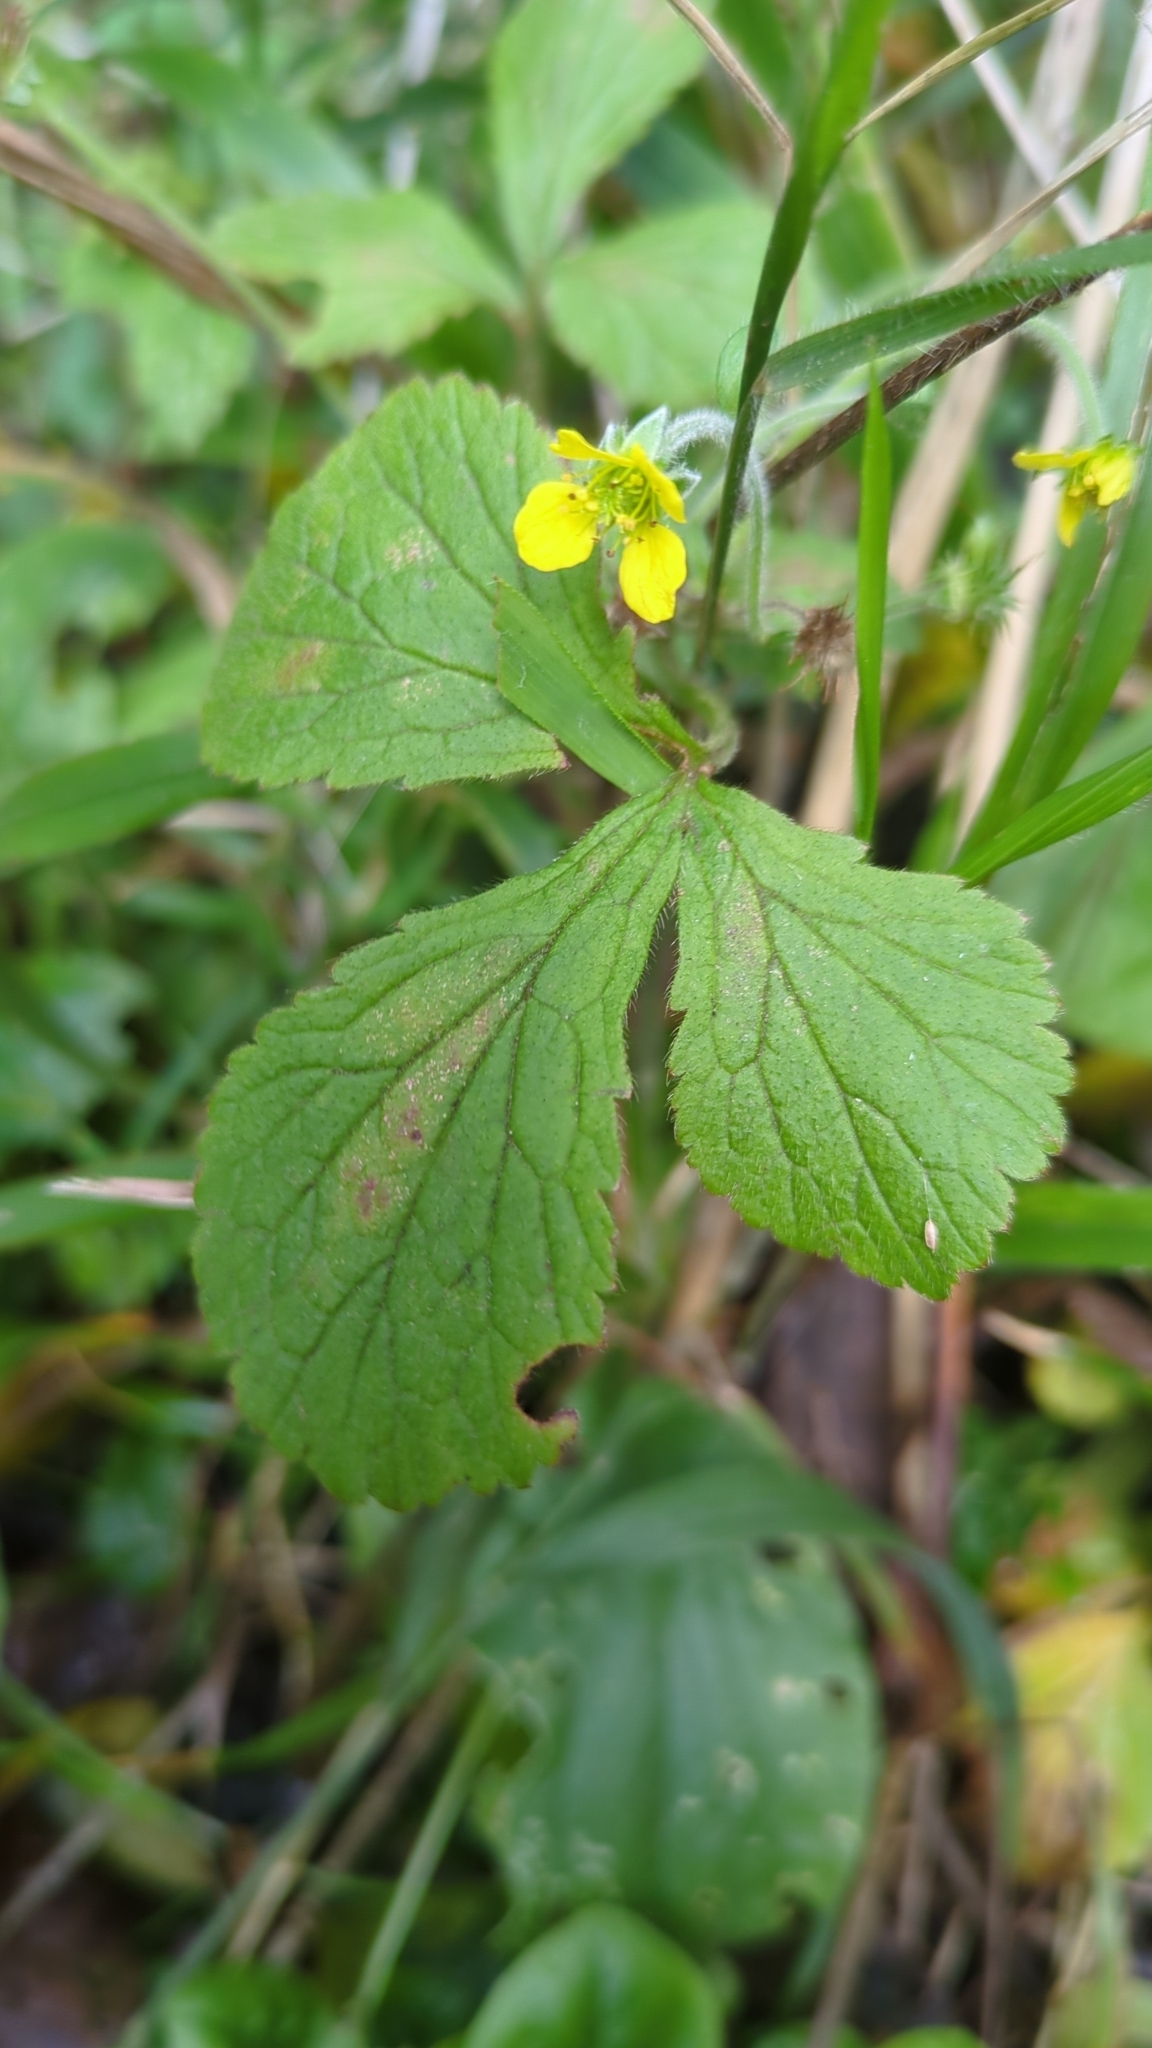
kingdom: Plantae
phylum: Tracheophyta
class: Magnoliopsida
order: Rosales
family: Rosaceae
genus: Geum
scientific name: Geum urbanum
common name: Wood avens
